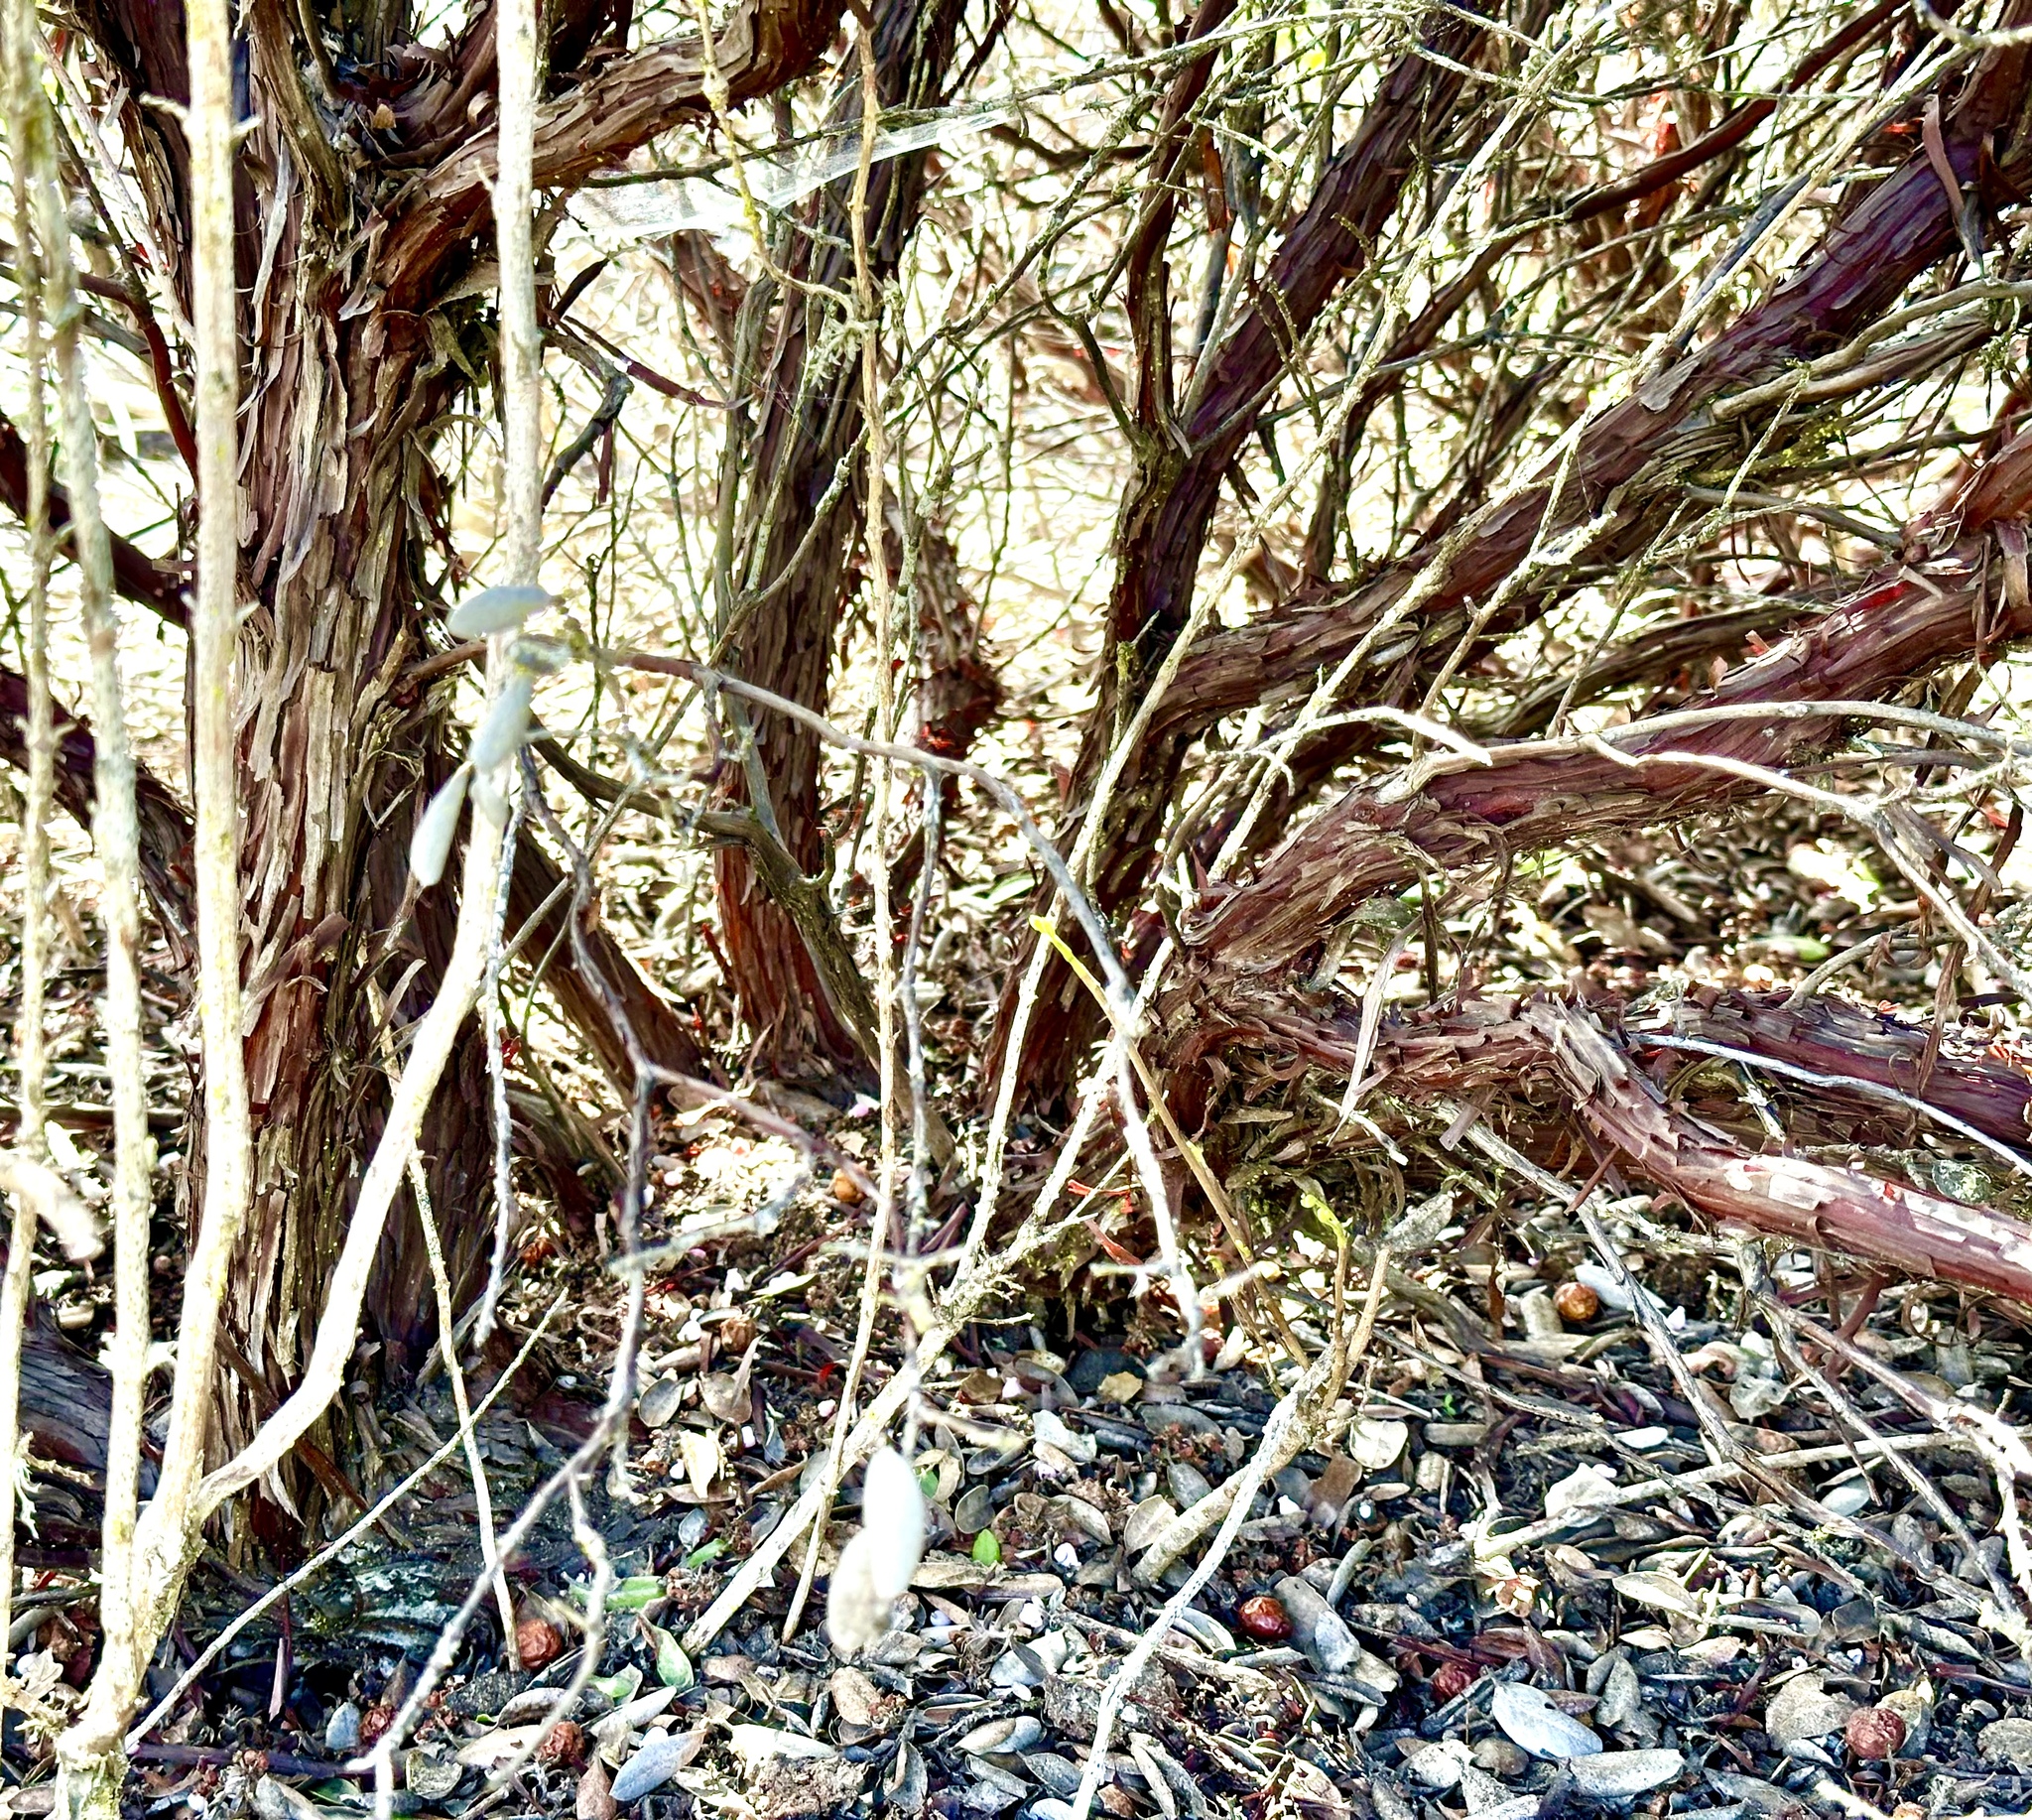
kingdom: Plantae
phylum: Tracheophyta
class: Magnoliopsida
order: Ericales
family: Ericaceae
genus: Arctostaphylos
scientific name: Arctostaphylos tomentosa
